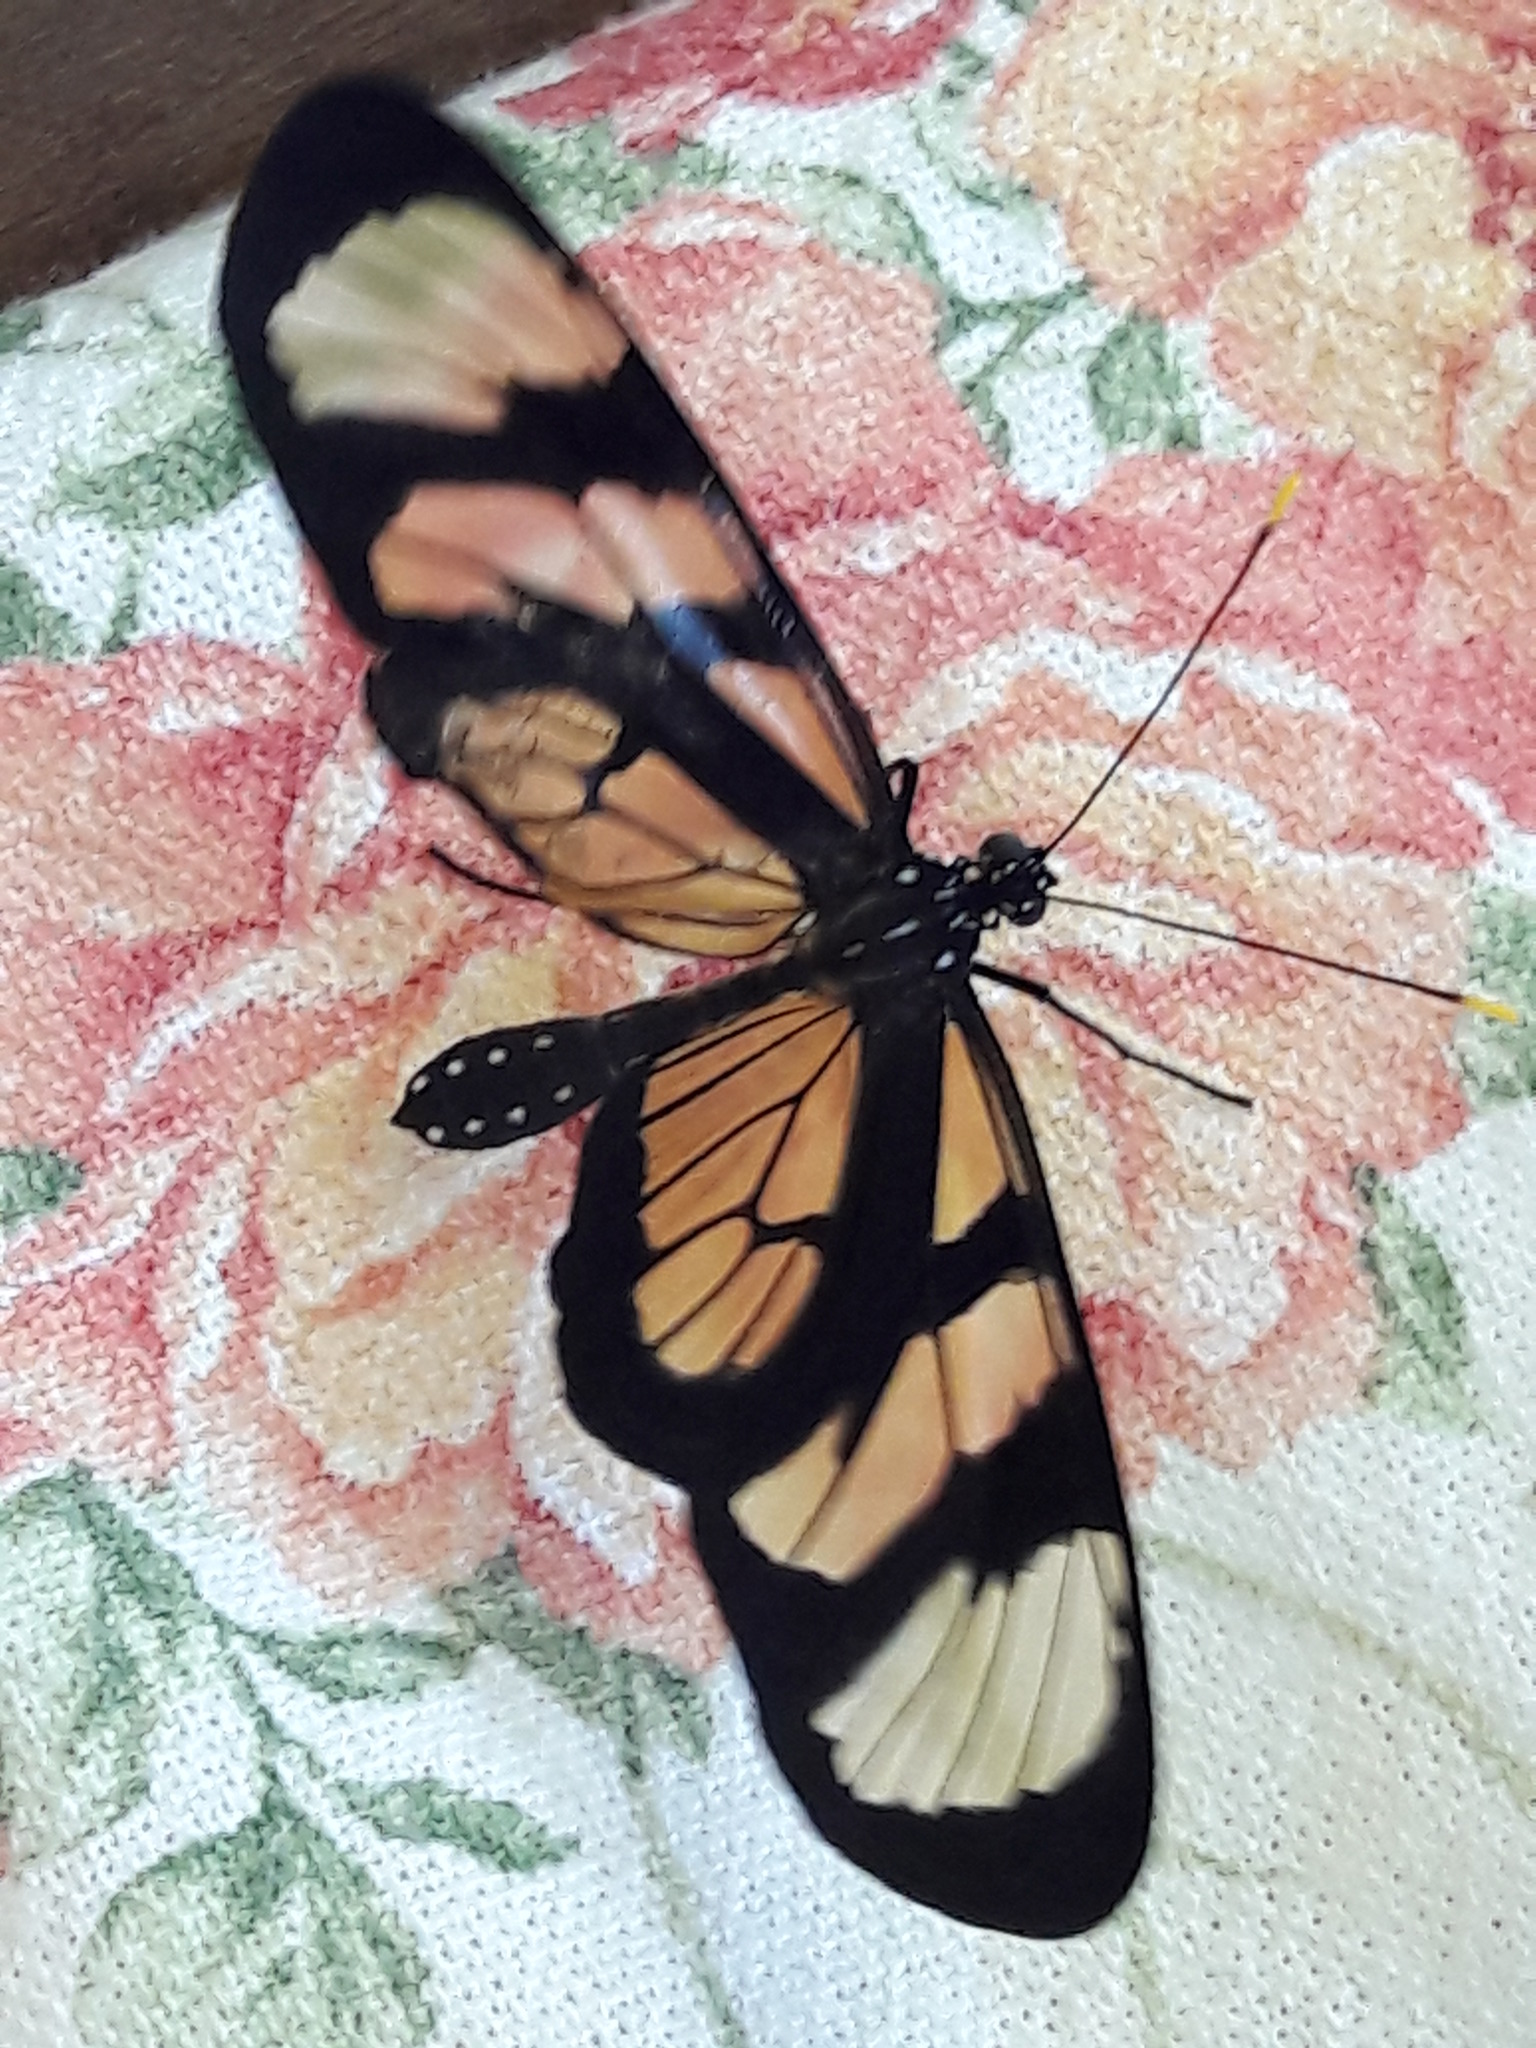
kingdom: Animalia
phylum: Arthropoda
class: Insecta
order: Lepidoptera
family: Nymphalidae
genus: Methona
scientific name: Methona themisto
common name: Themisto amberwing
